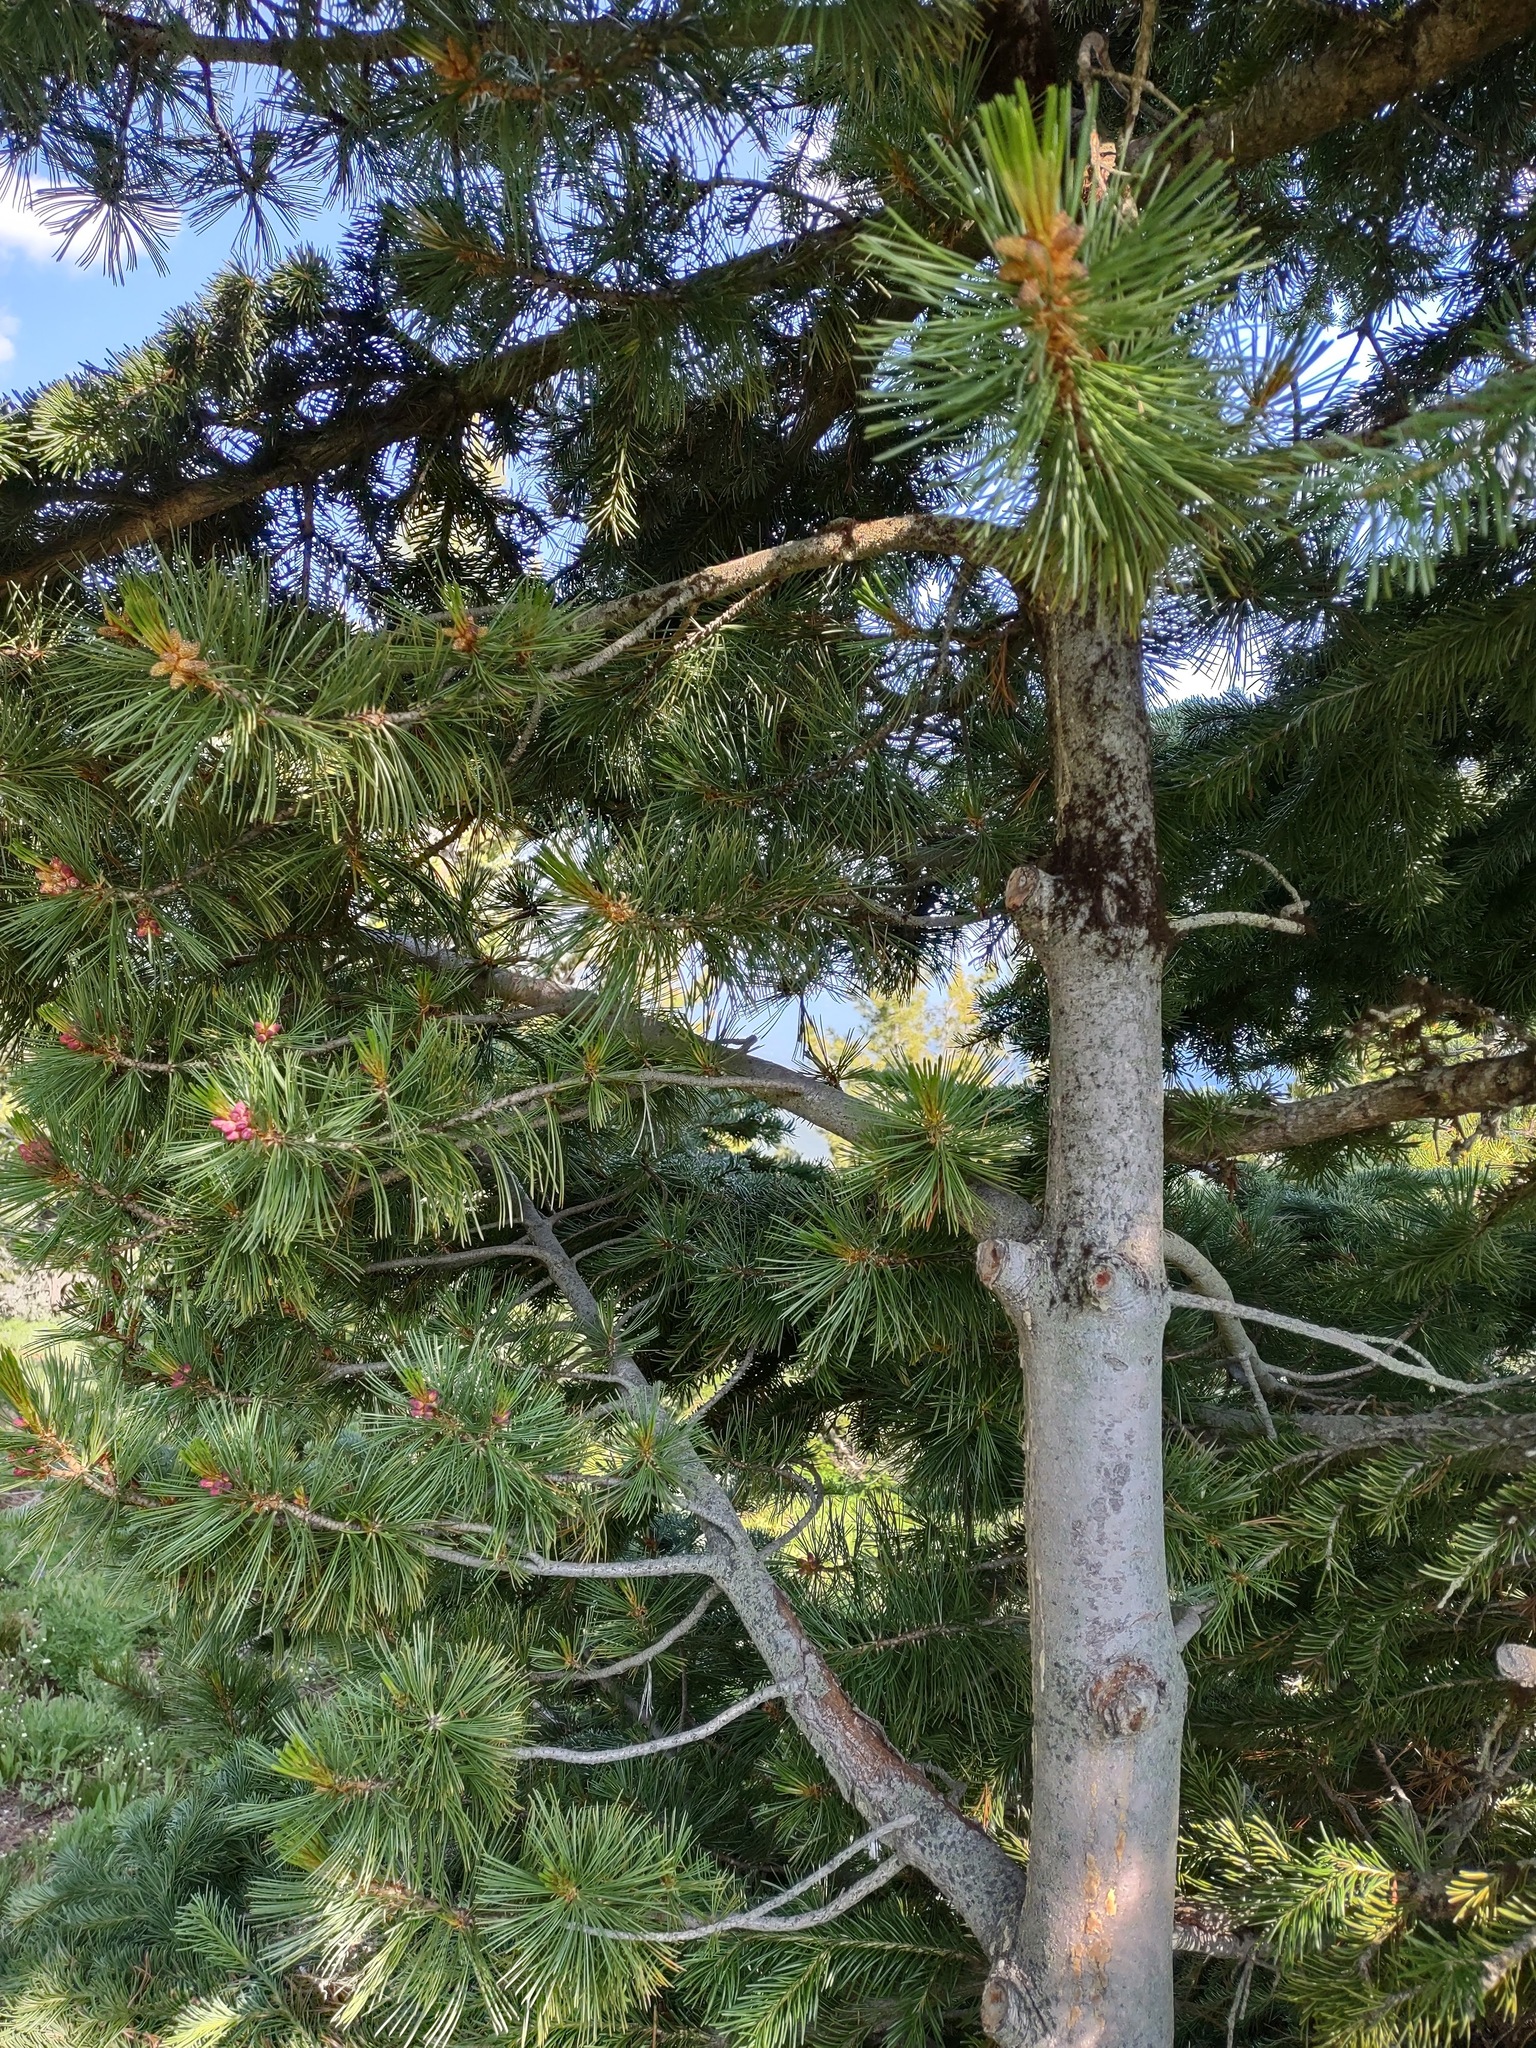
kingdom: Plantae
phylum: Tracheophyta
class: Pinopsida
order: Pinales
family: Pinaceae
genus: Pinus
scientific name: Pinus albicaulis
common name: Whitebark pine
